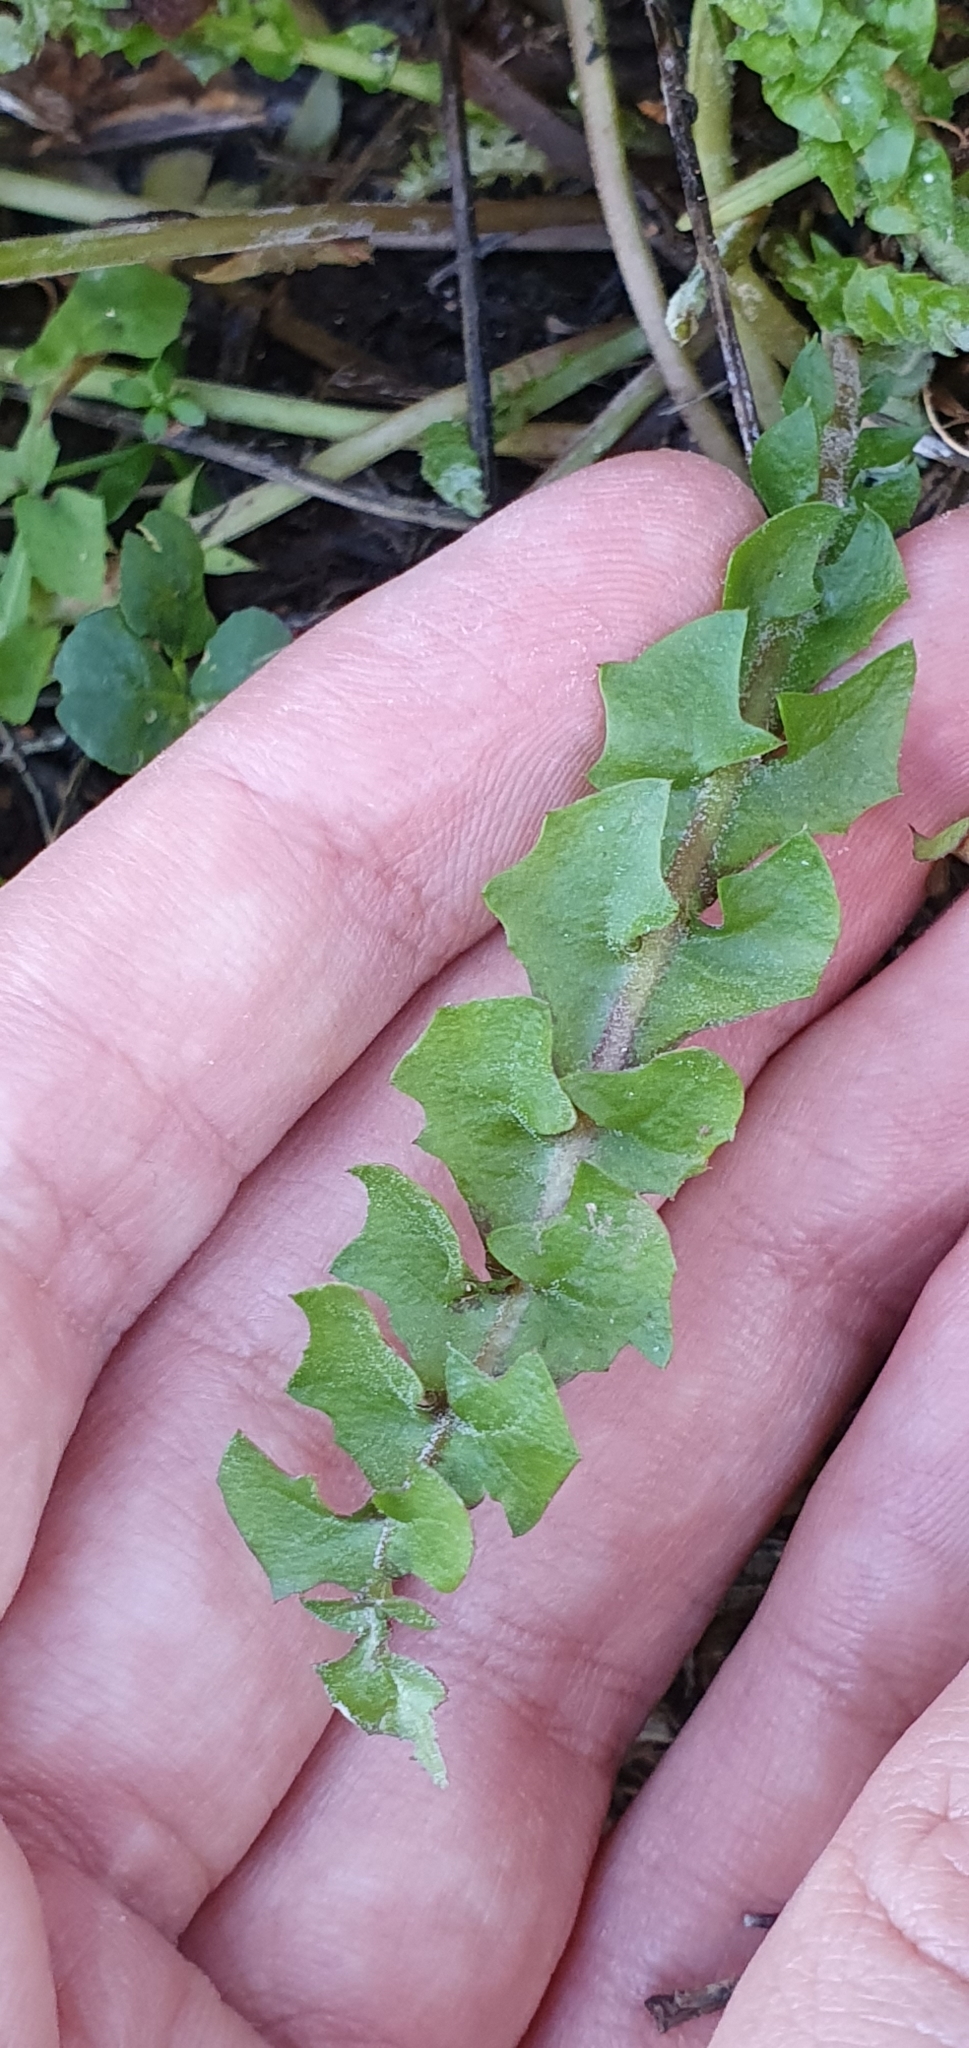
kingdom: Plantae
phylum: Tracheophyta
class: Magnoliopsida
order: Asterales
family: Asteraceae
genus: Hyoseris
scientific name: Hyoseris radiata
